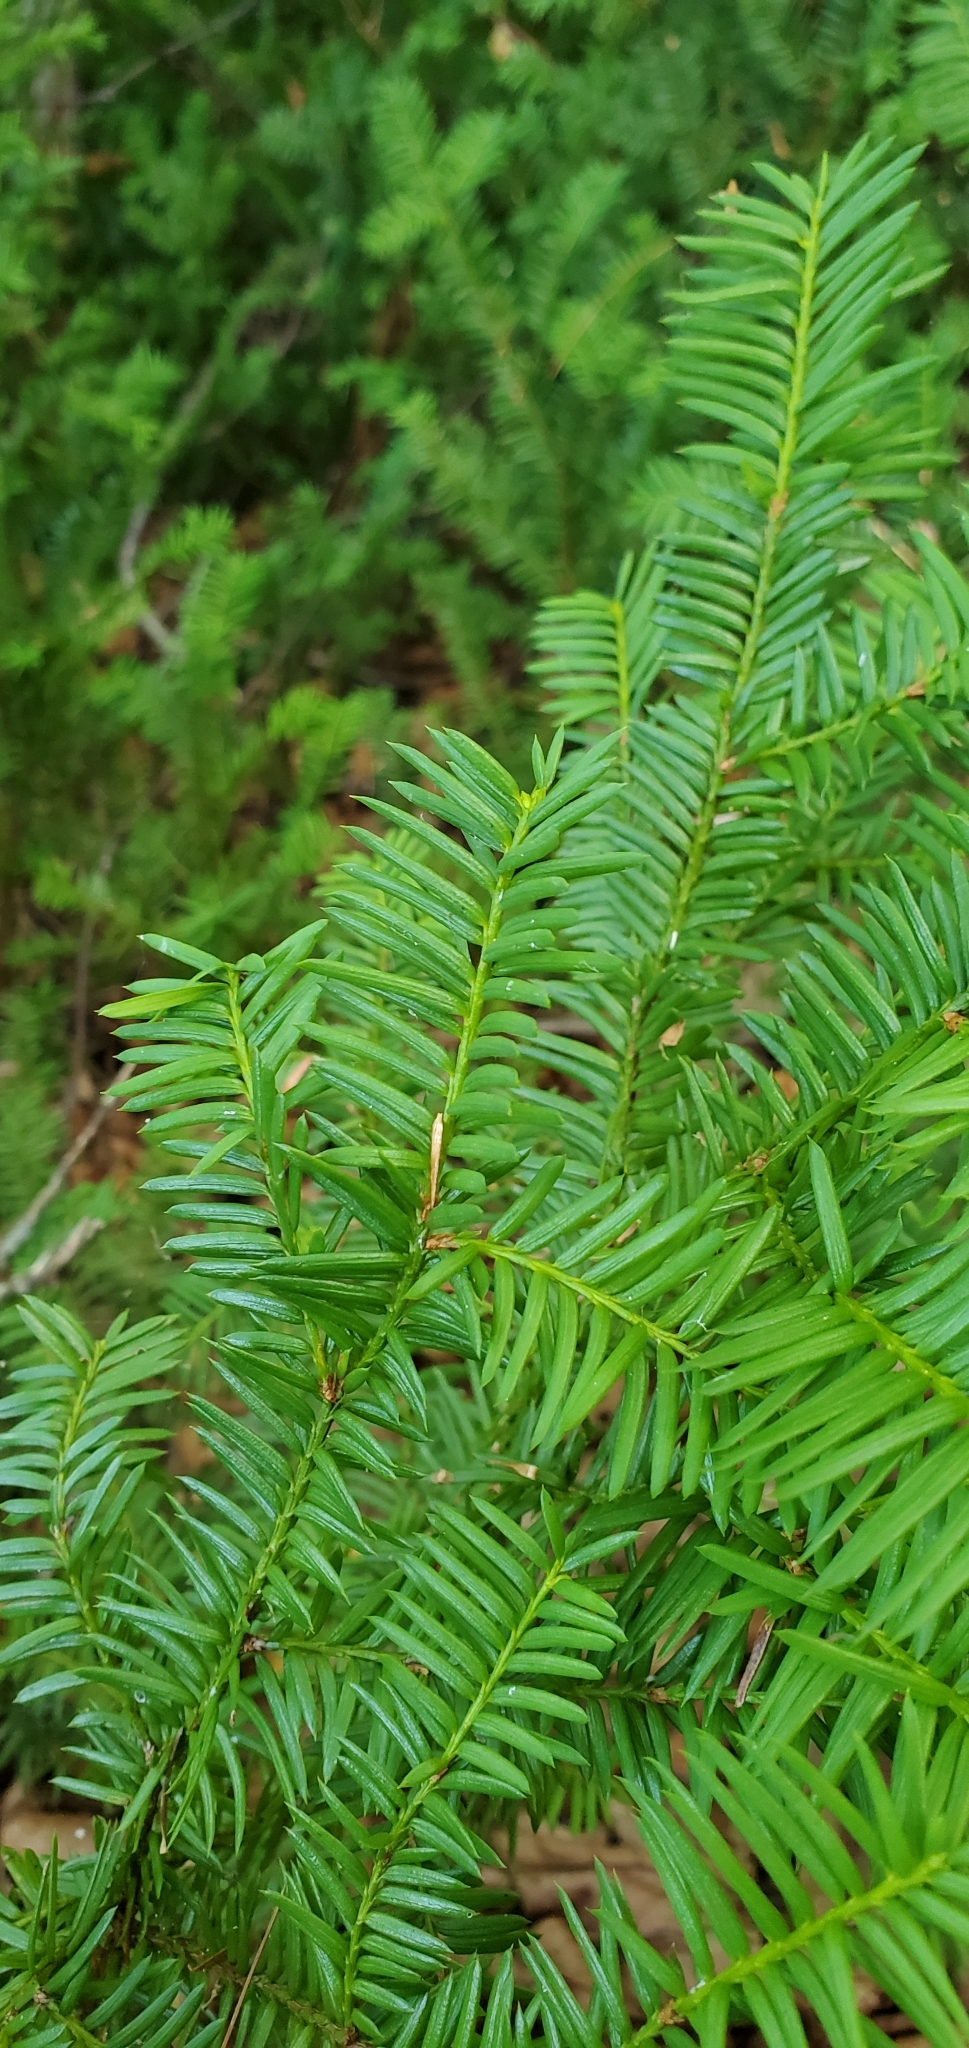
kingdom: Plantae
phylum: Tracheophyta
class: Pinopsida
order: Pinales
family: Taxaceae
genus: Taxus
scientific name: Taxus canadensis
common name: American yew
